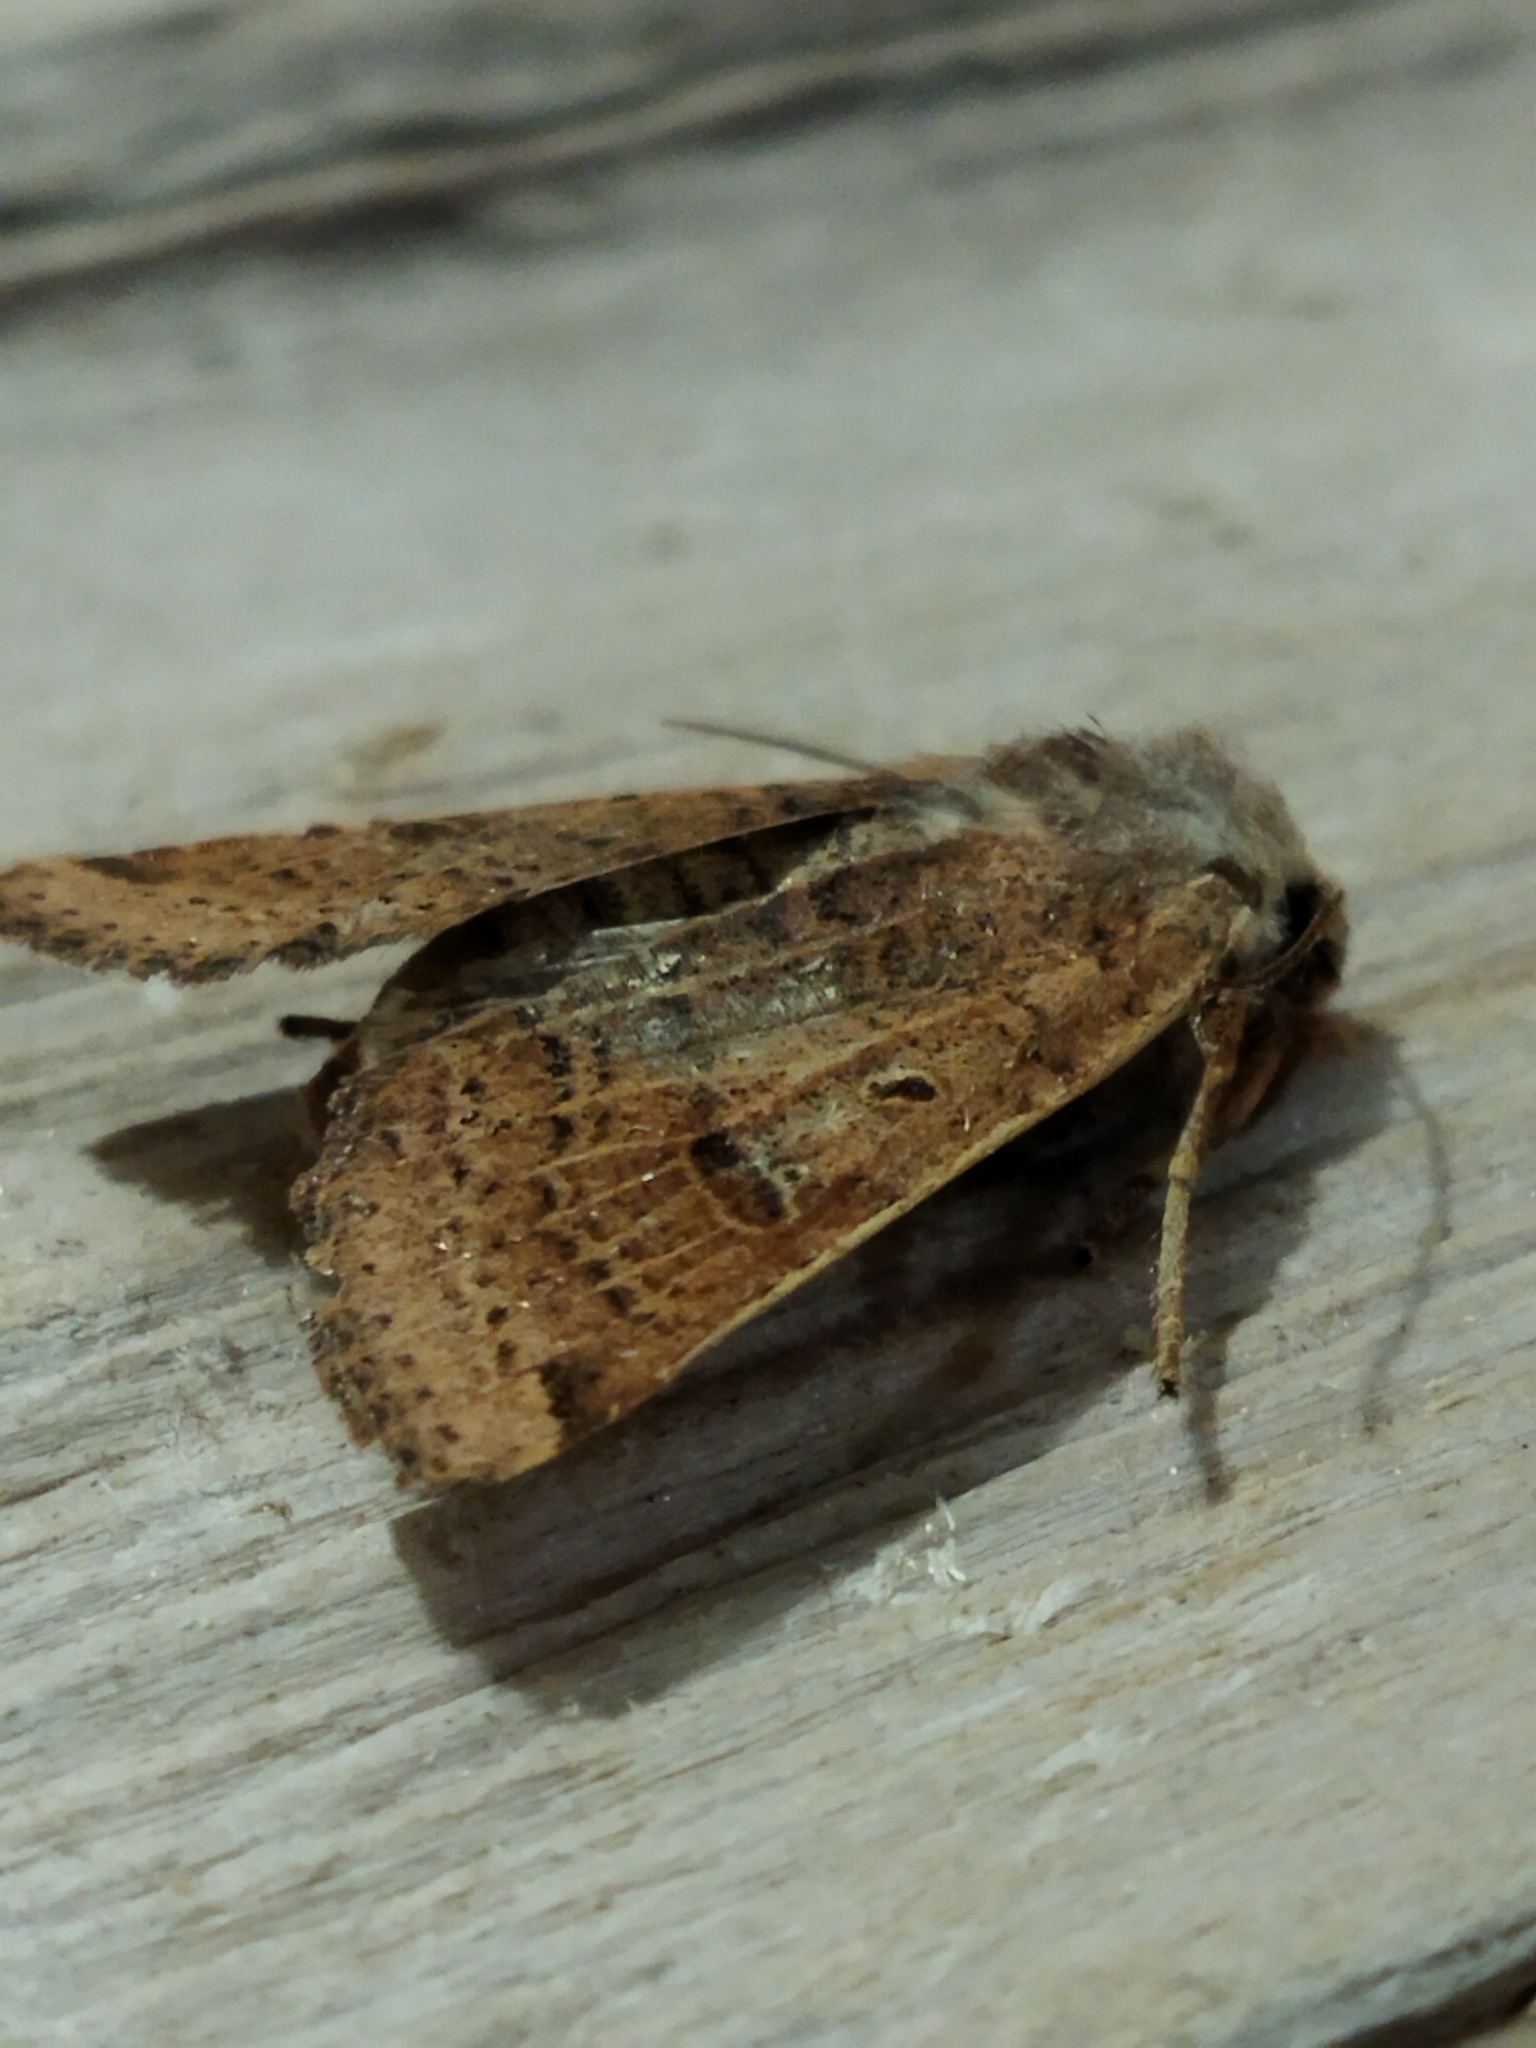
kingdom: Animalia
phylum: Arthropoda
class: Insecta
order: Lepidoptera
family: Noctuidae
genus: Agrochola
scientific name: Agrochola lychnidis
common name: Beaded chestnut
